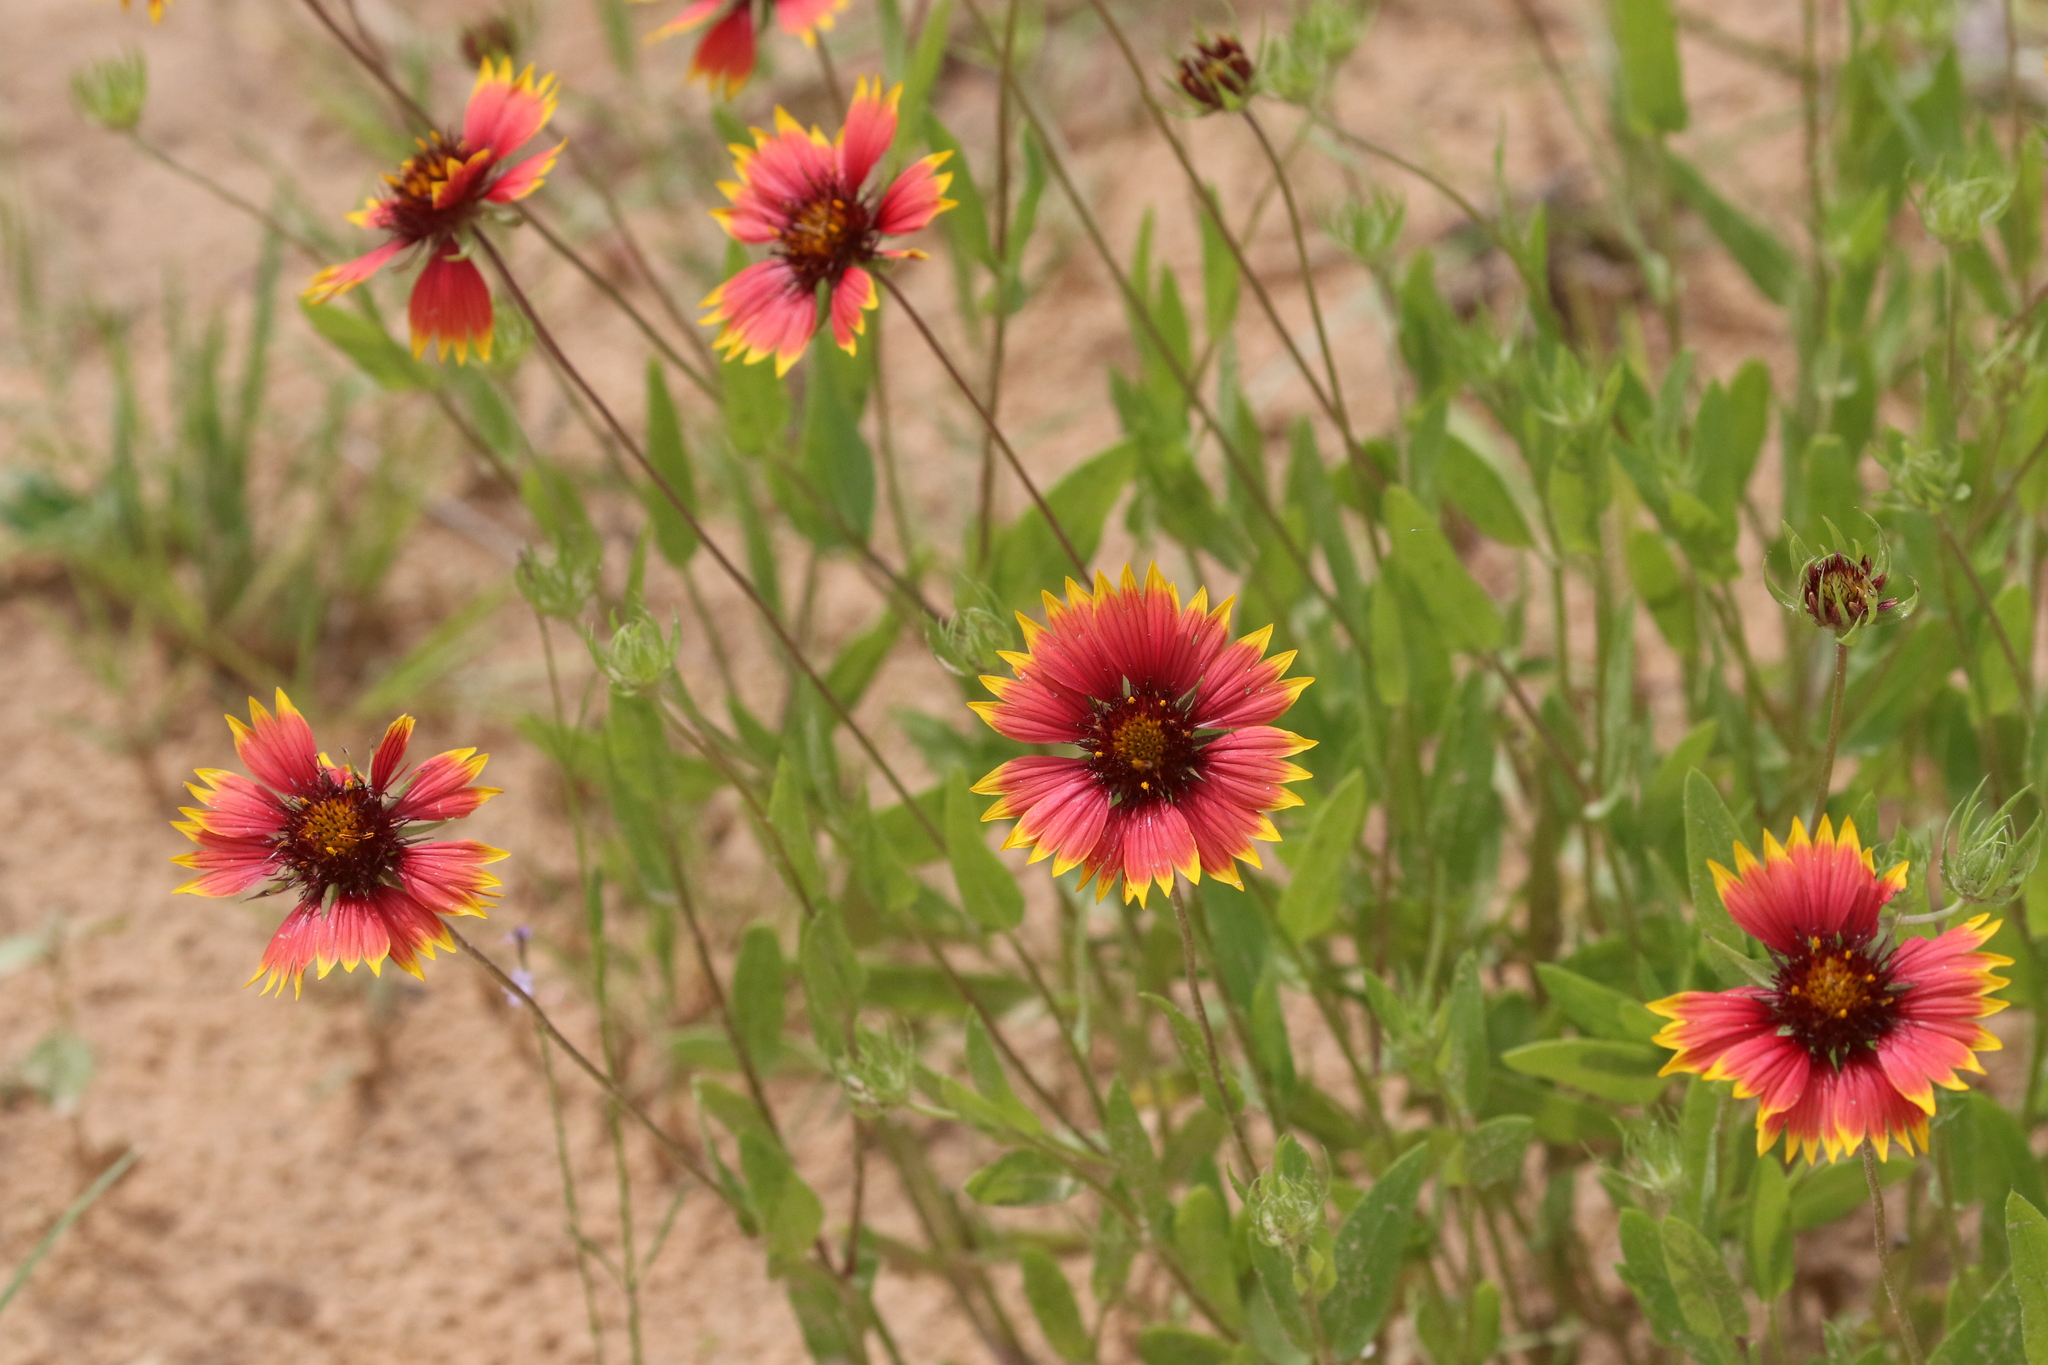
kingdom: Plantae
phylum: Tracheophyta
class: Magnoliopsida
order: Asterales
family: Asteraceae
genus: Gaillardia
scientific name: Gaillardia pulchella
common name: Firewheel
